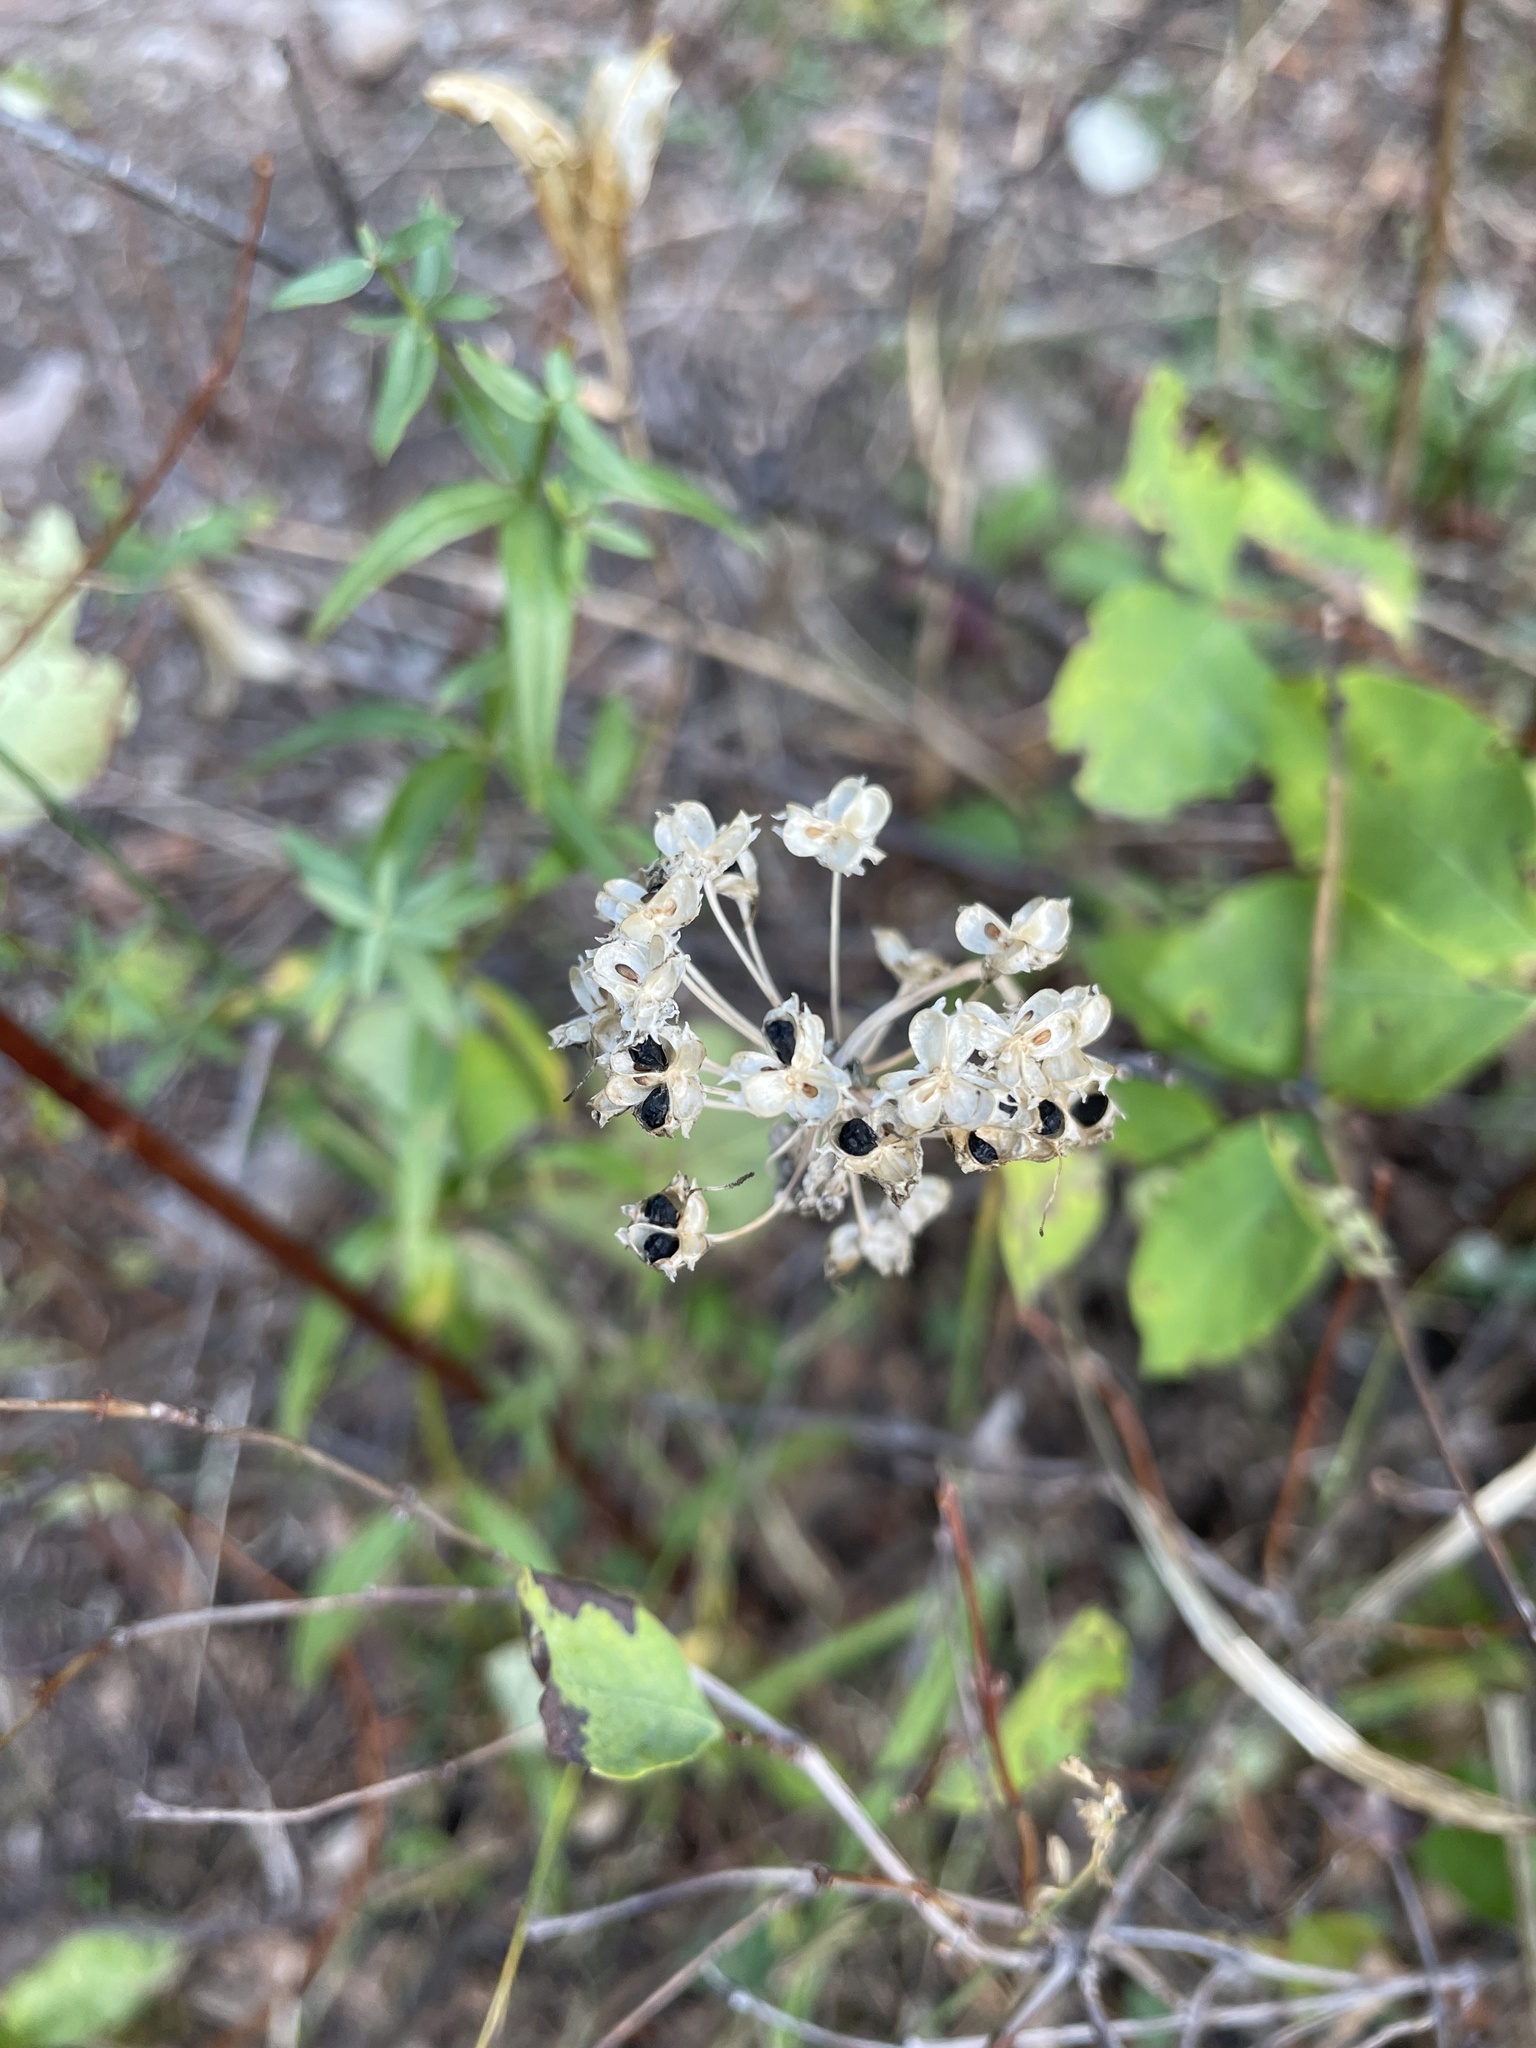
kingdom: Plantae
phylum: Tracheophyta
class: Liliopsida
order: Asparagales
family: Amaryllidaceae
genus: Allium
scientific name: Allium cernuum
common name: Nodding onion
